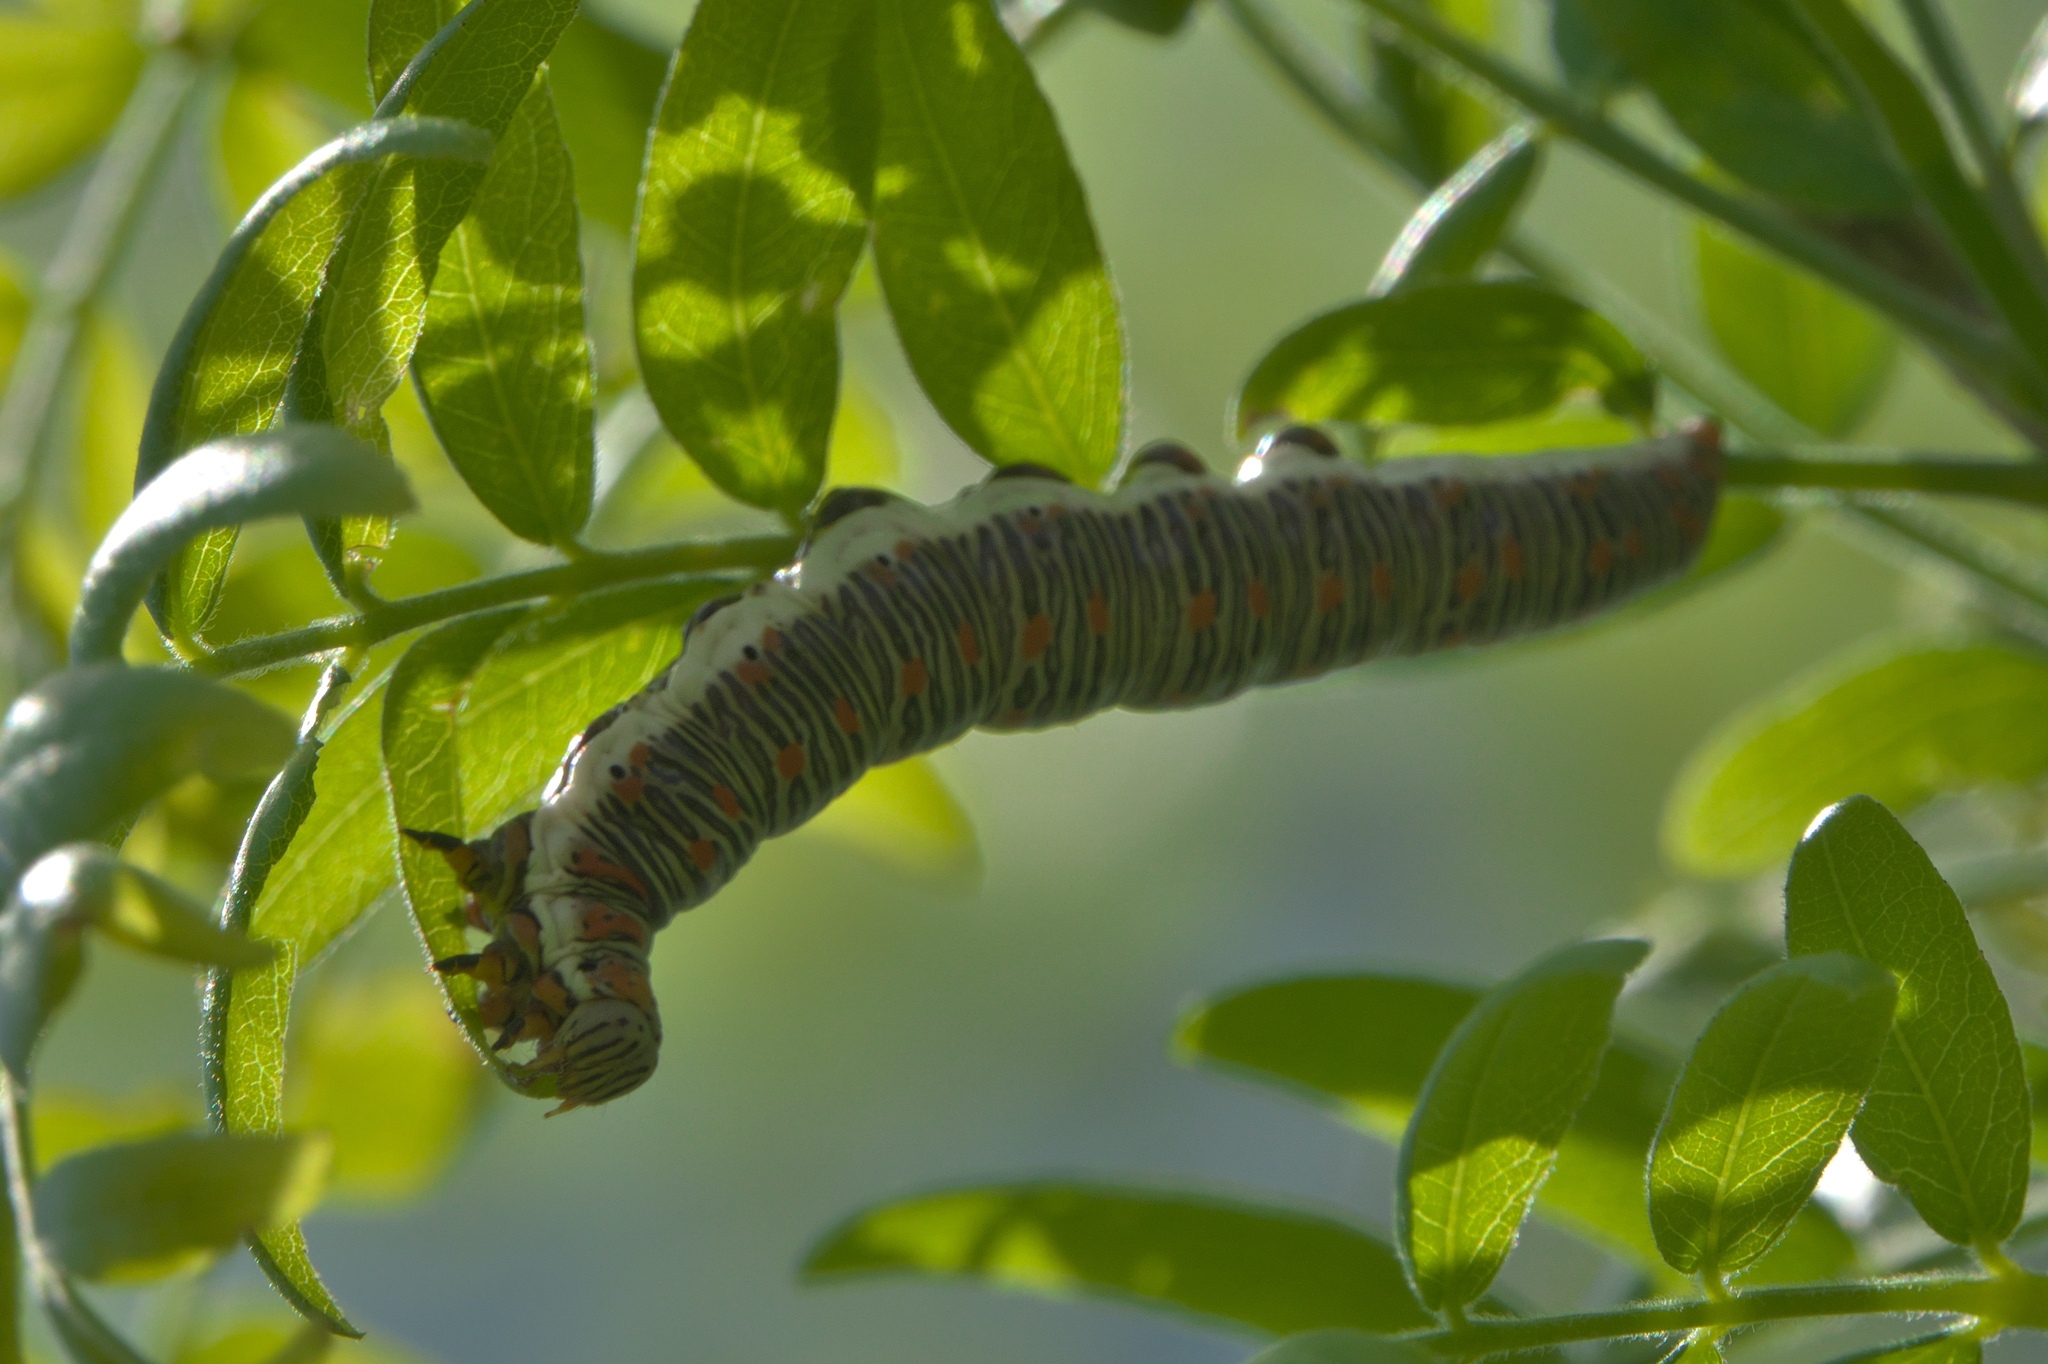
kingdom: Animalia
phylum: Arthropoda
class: Insecta
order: Lepidoptera
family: Erebidae
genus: Catocala
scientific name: Catocala illecta
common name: Magdalen underwing
